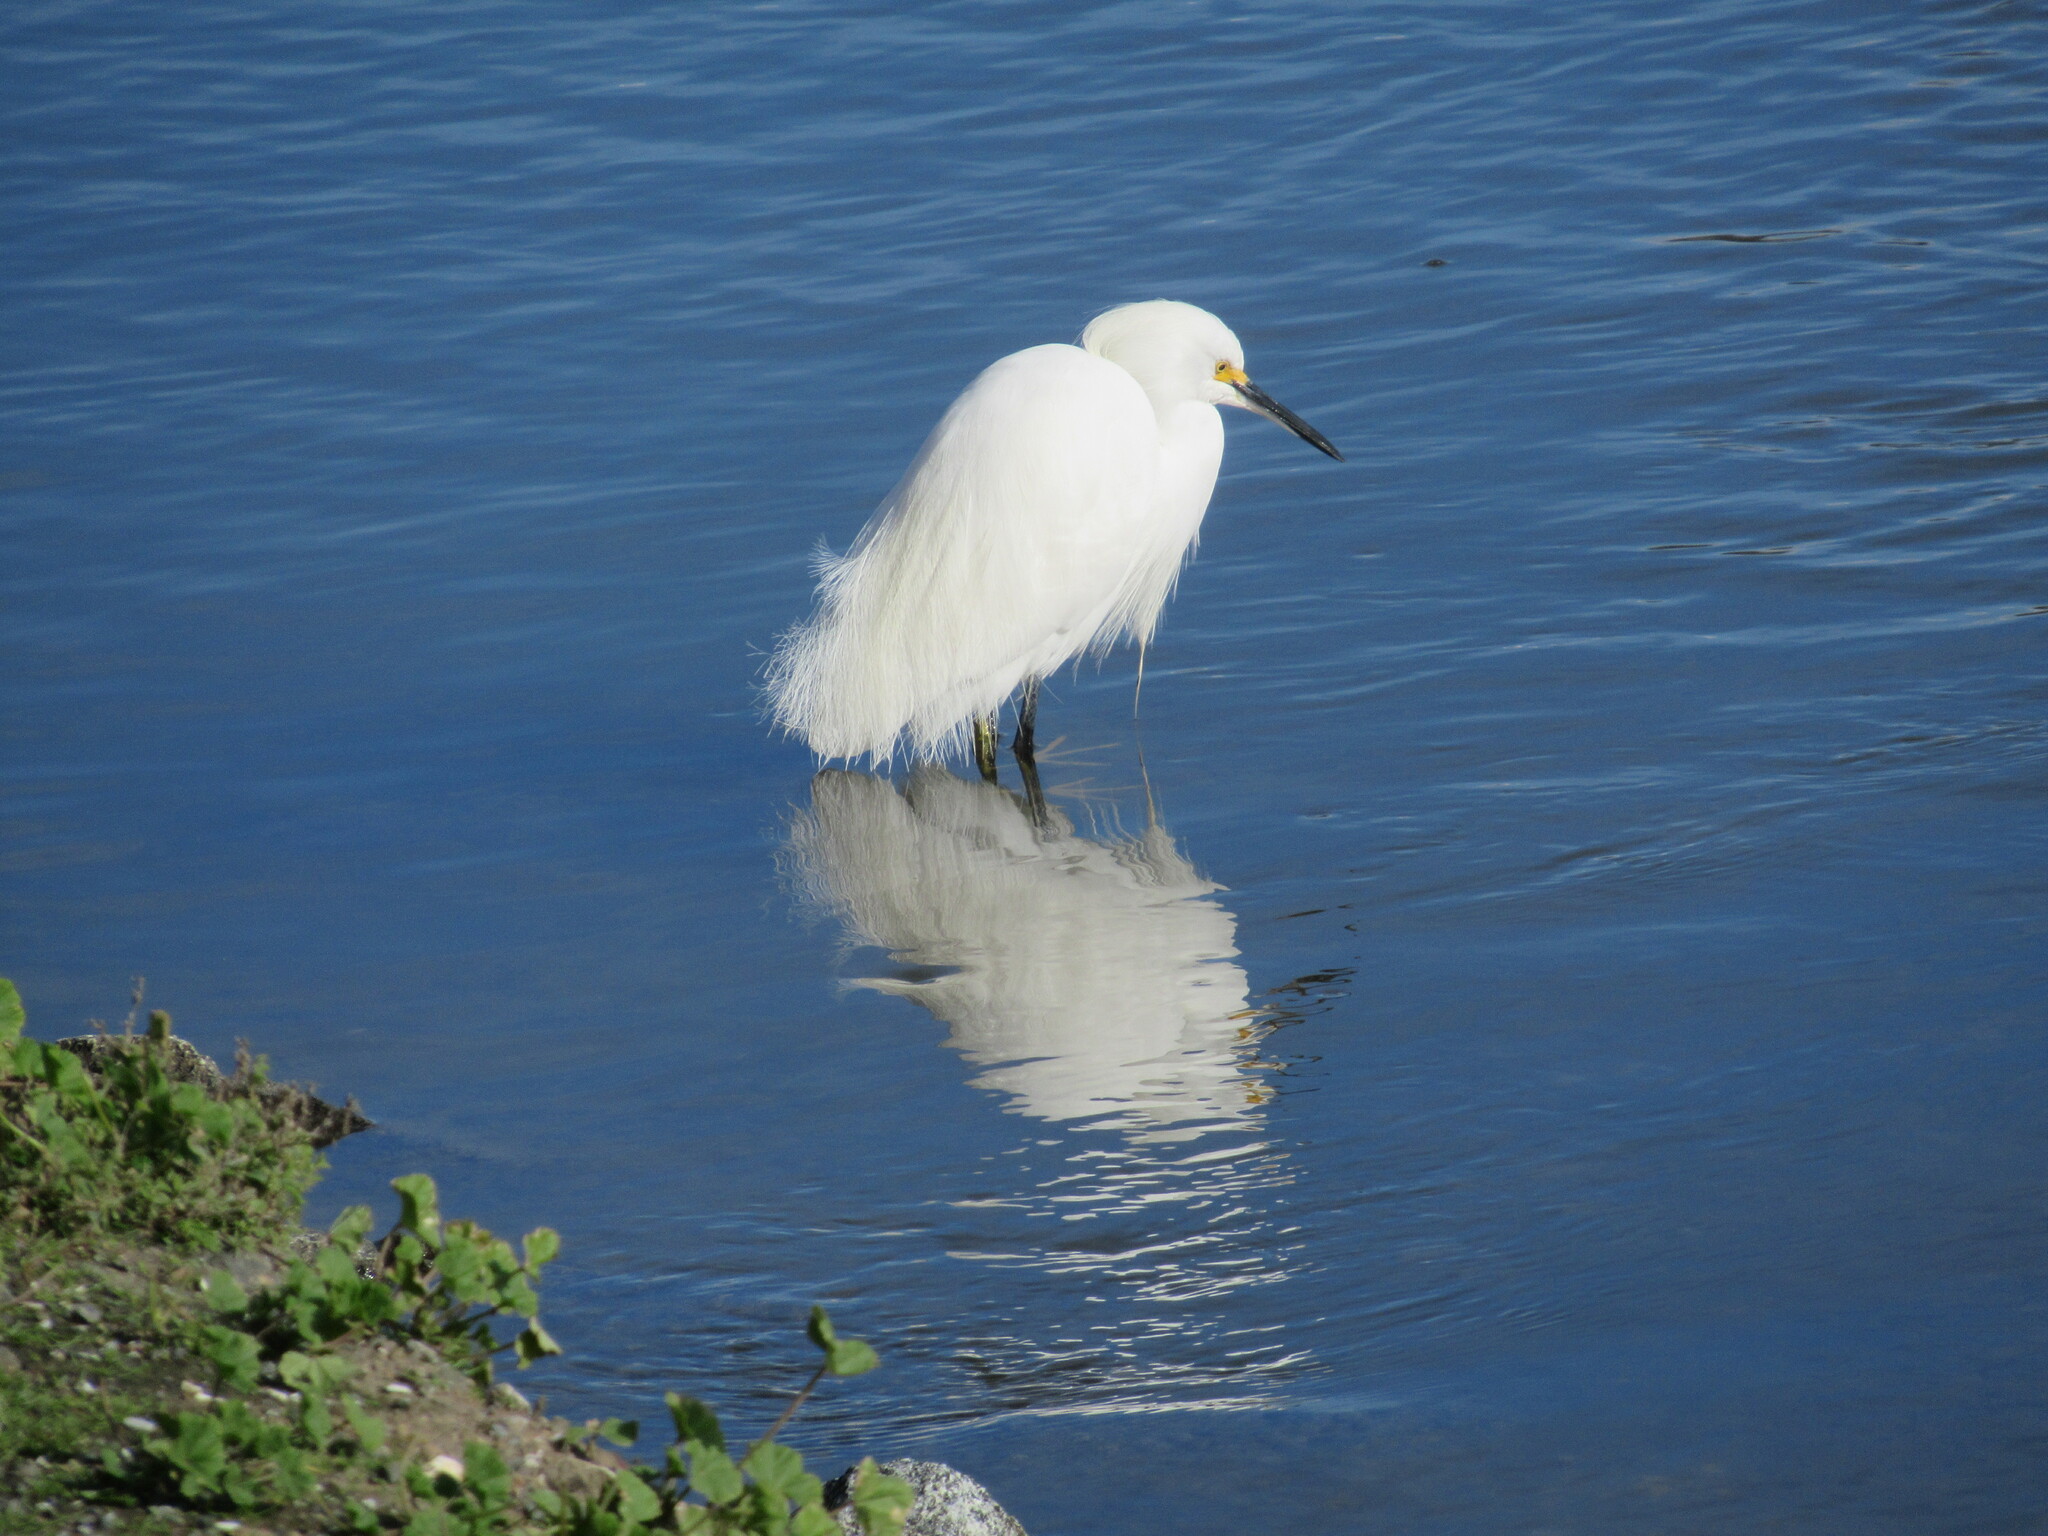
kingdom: Animalia
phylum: Chordata
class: Aves
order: Pelecaniformes
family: Ardeidae
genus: Egretta
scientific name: Egretta thula
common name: Snowy egret
